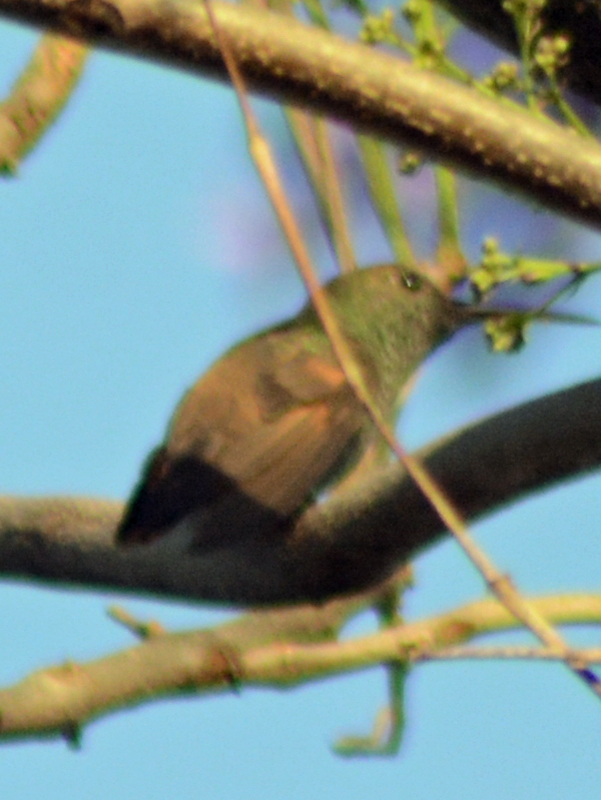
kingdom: Animalia
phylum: Chordata
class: Aves
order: Apodiformes
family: Trochilidae
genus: Saucerottia
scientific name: Saucerottia beryllina
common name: Berylline hummingbird
